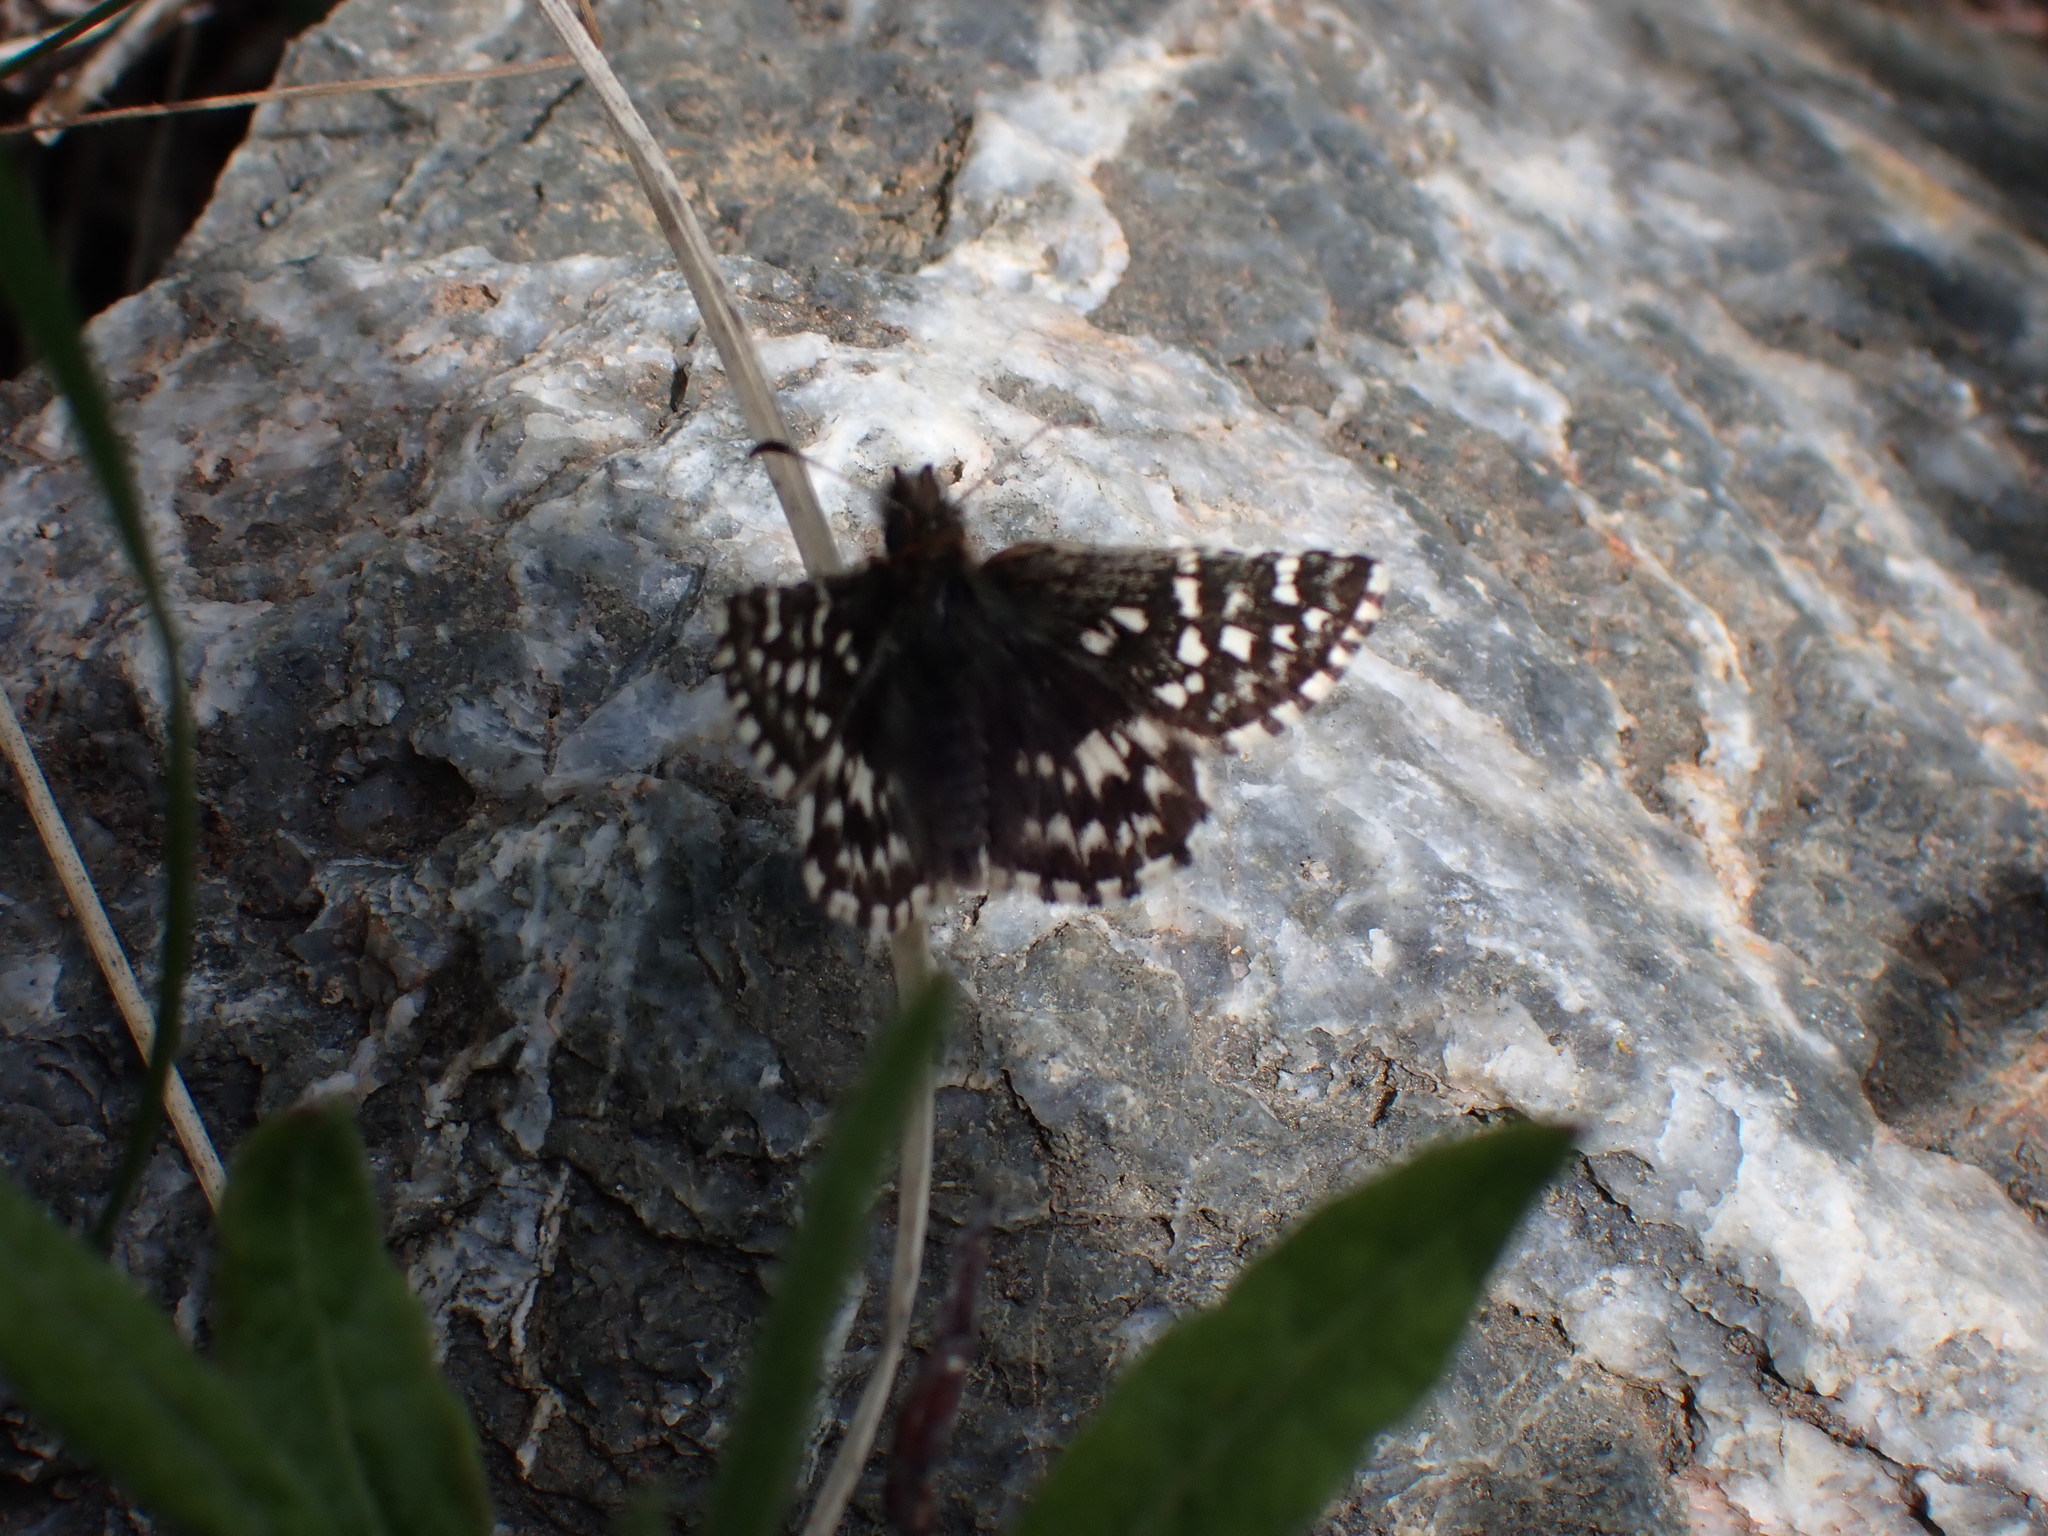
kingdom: Animalia
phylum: Arthropoda
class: Insecta
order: Lepidoptera
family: Hesperiidae
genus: Pyrgus
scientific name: Pyrgus ruralis
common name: Two-banded checkered-skipper
